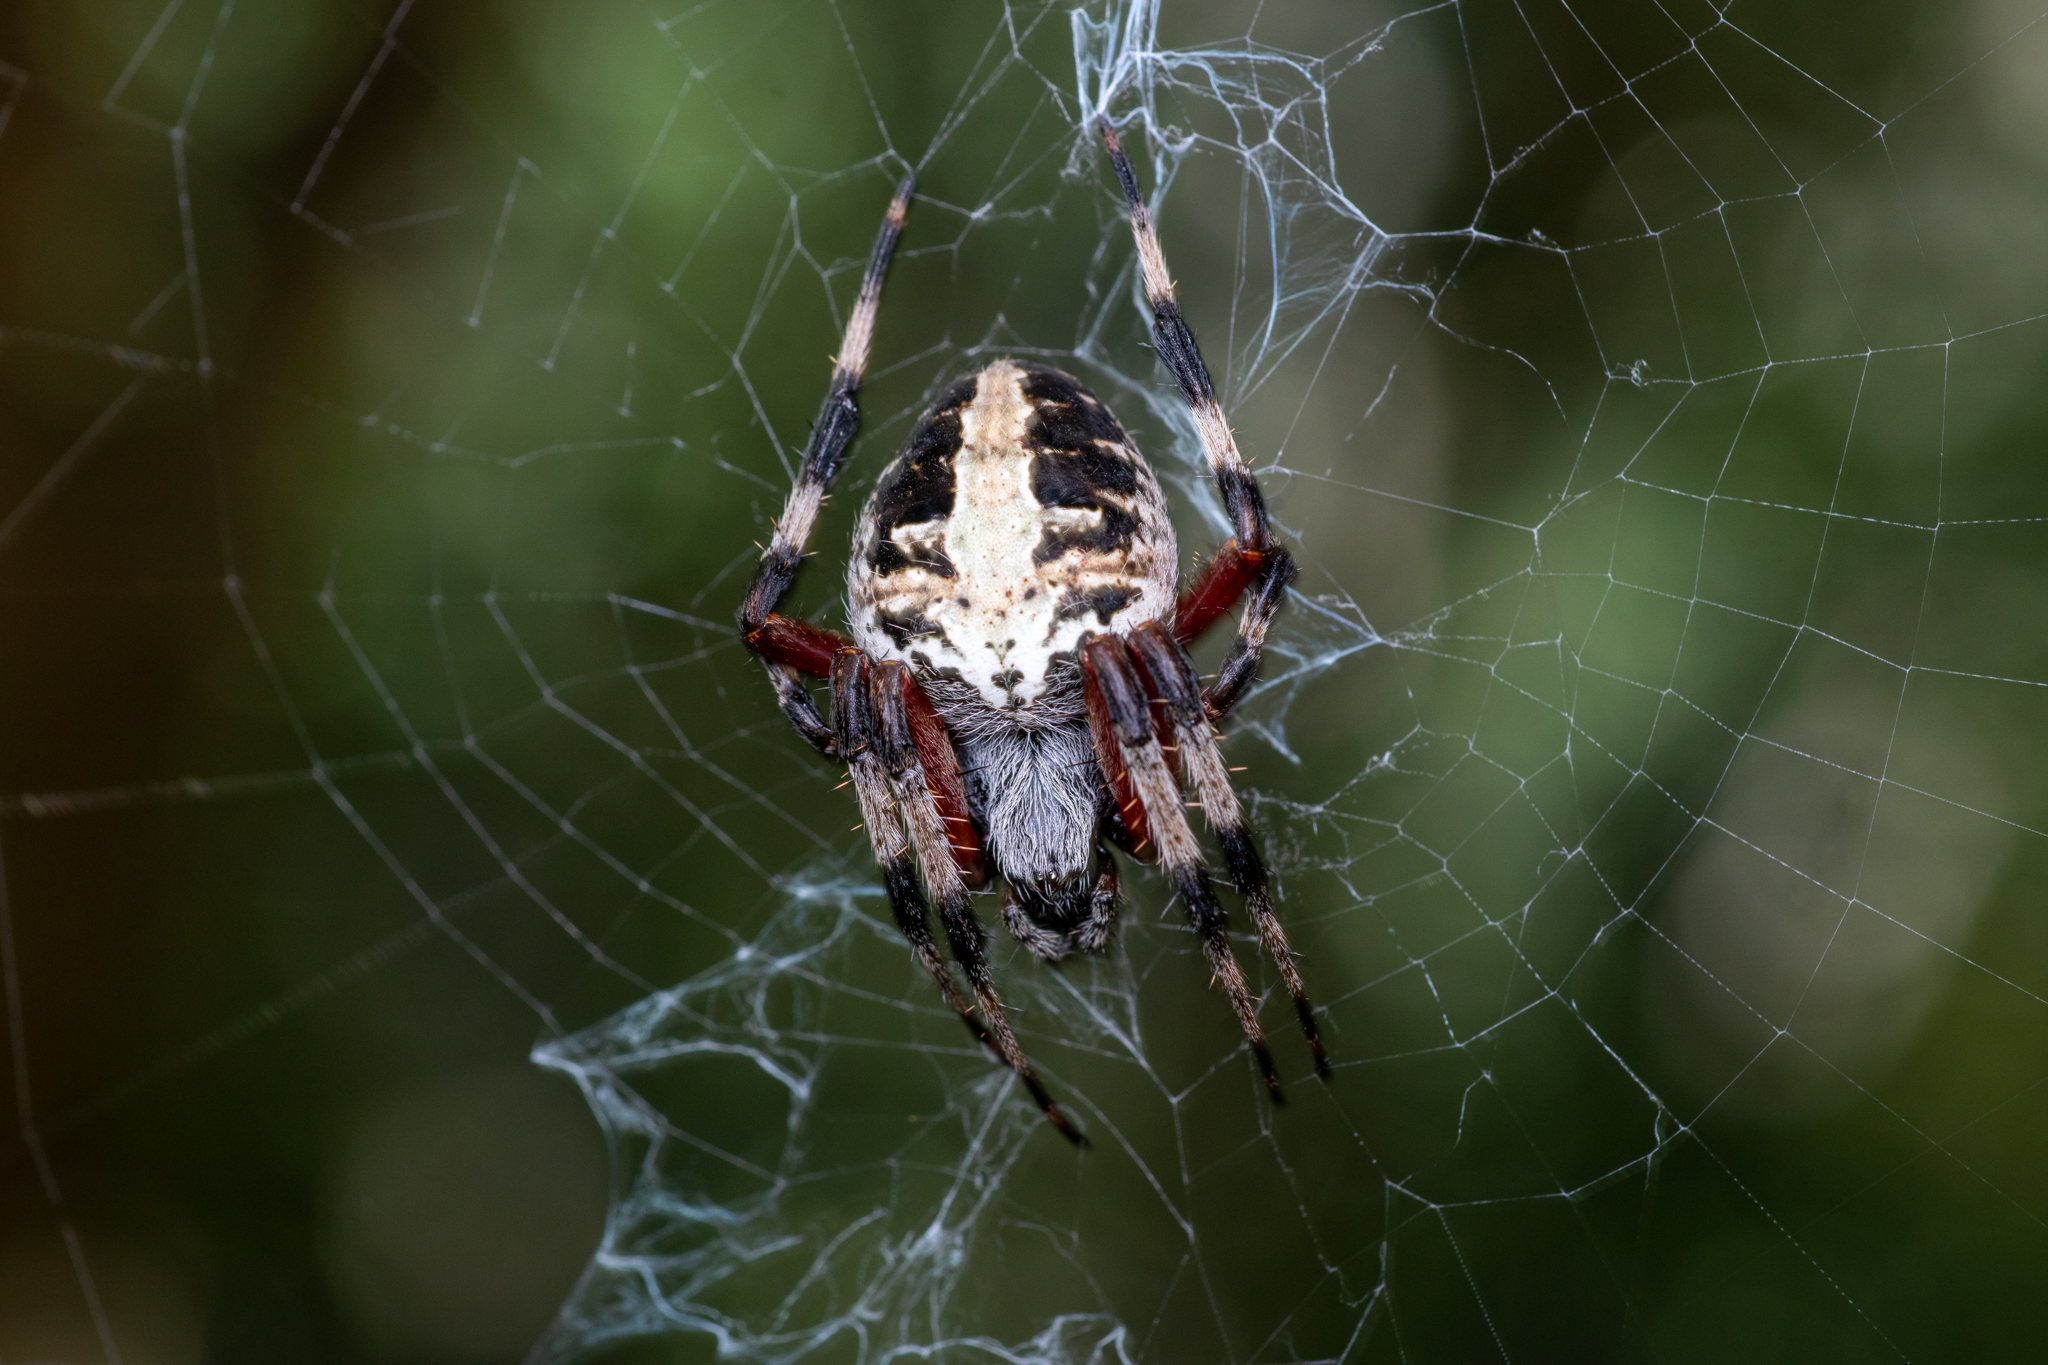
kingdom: Animalia
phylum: Arthropoda
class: Arachnida
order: Araneae
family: Araneidae
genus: Neoscona
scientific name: Neoscona domiciliorum
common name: Red-femured spotted orbweaver
